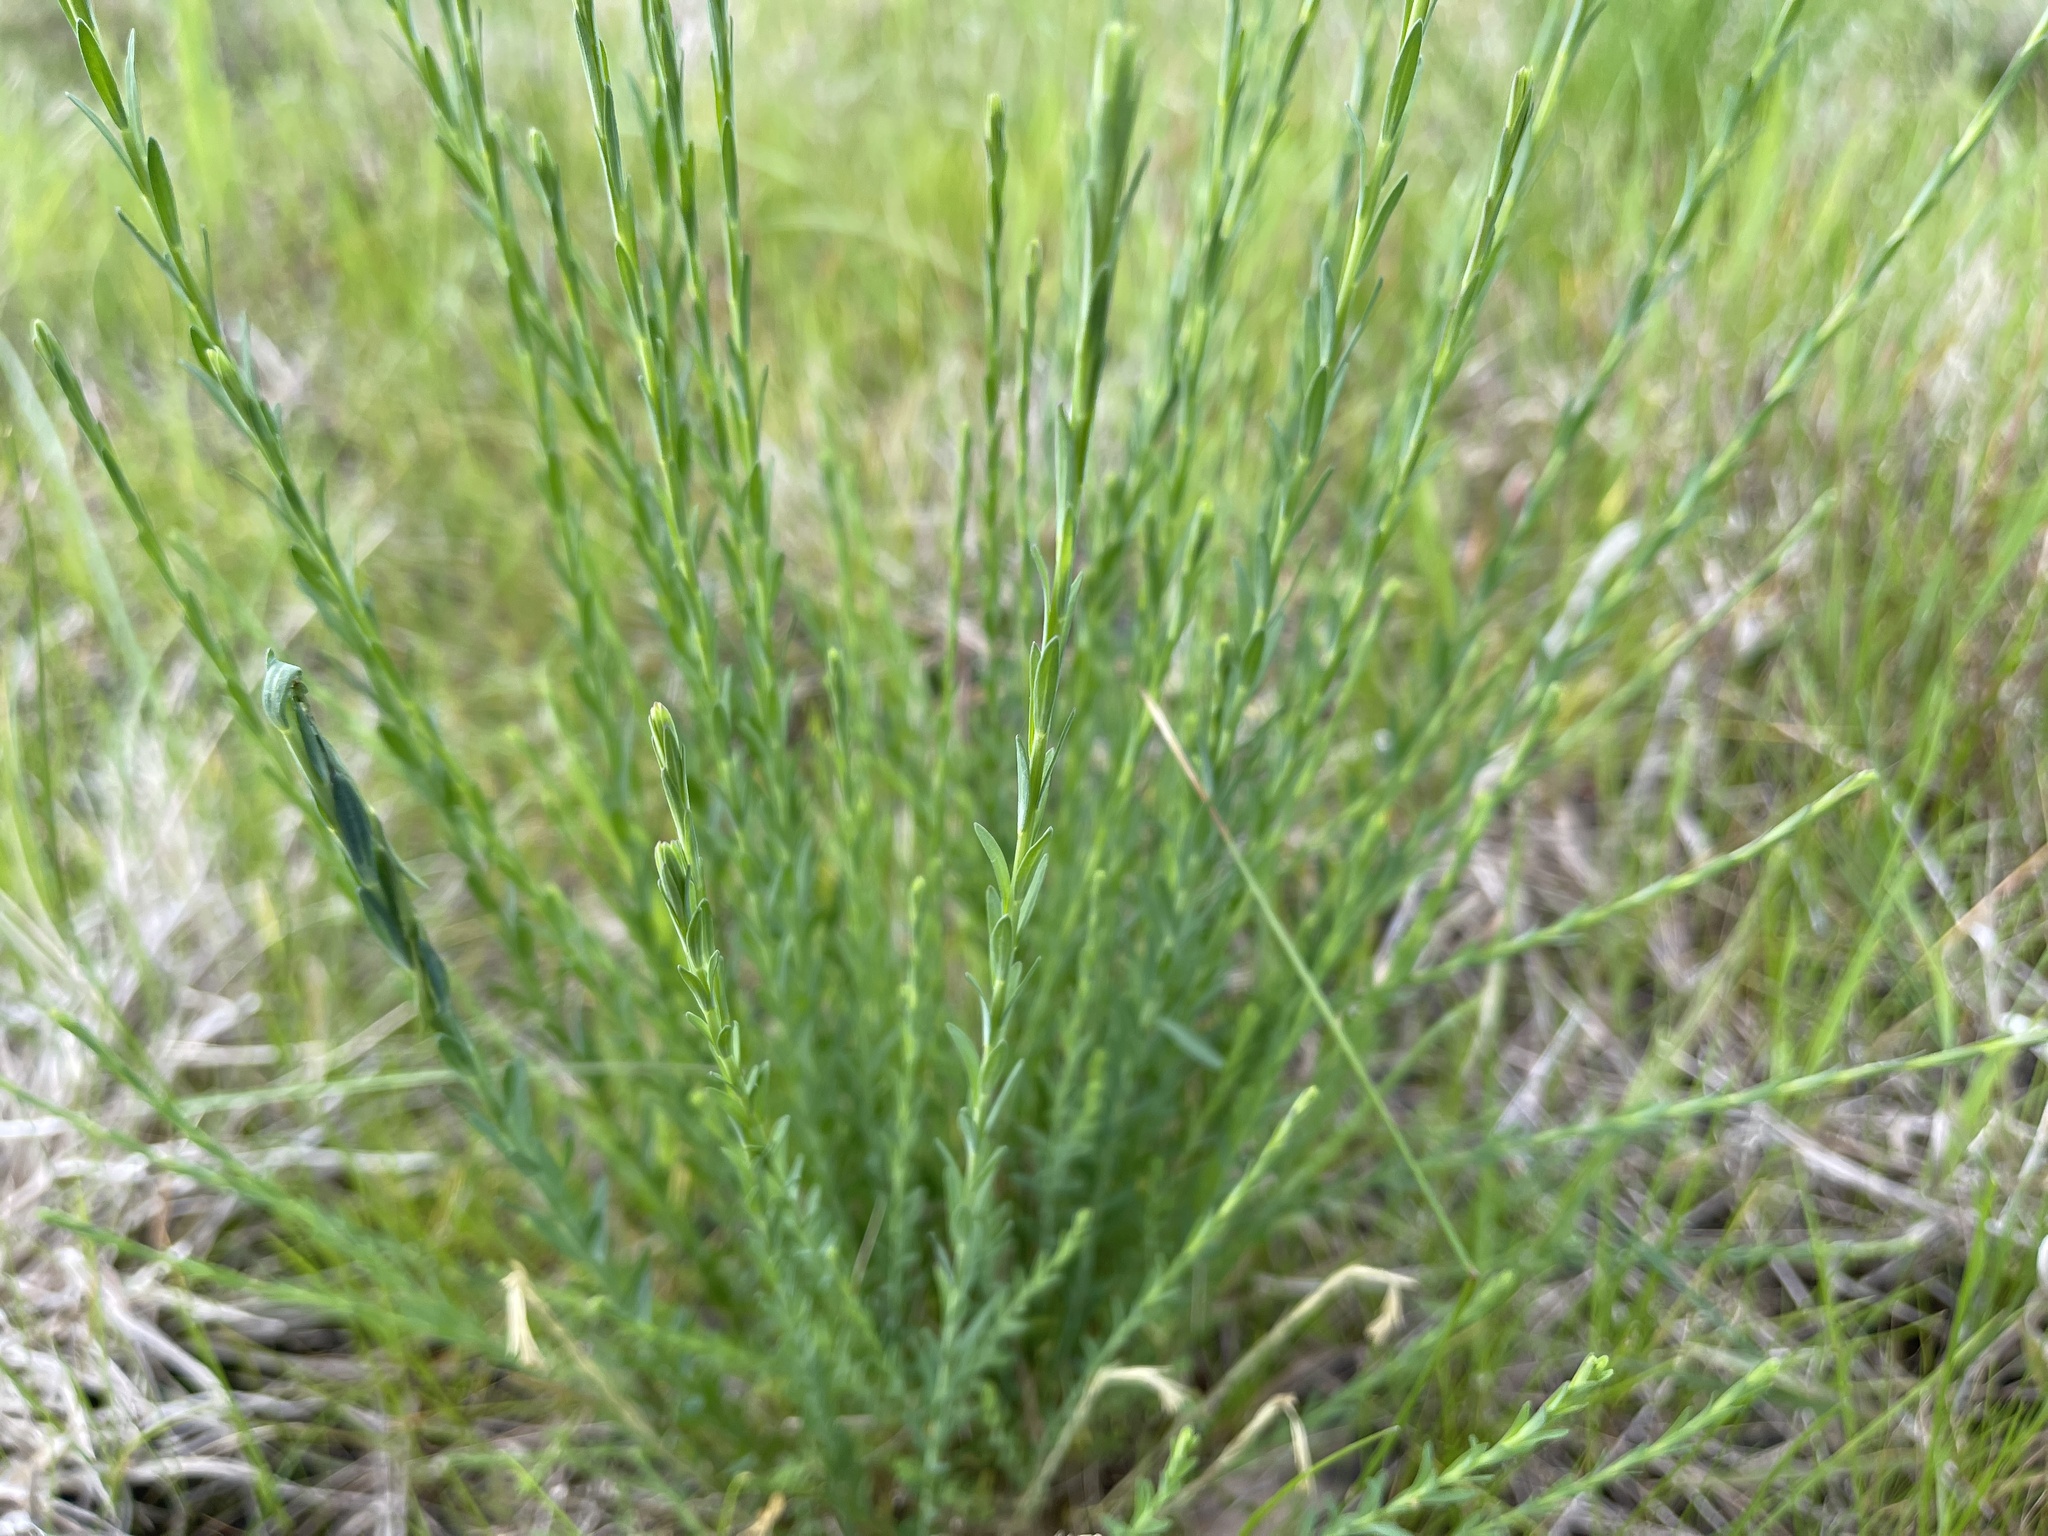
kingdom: Plantae
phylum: Tracheophyta
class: Magnoliopsida
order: Malpighiales
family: Linaceae
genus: Linum
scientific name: Linum marginale
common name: Wild flax
